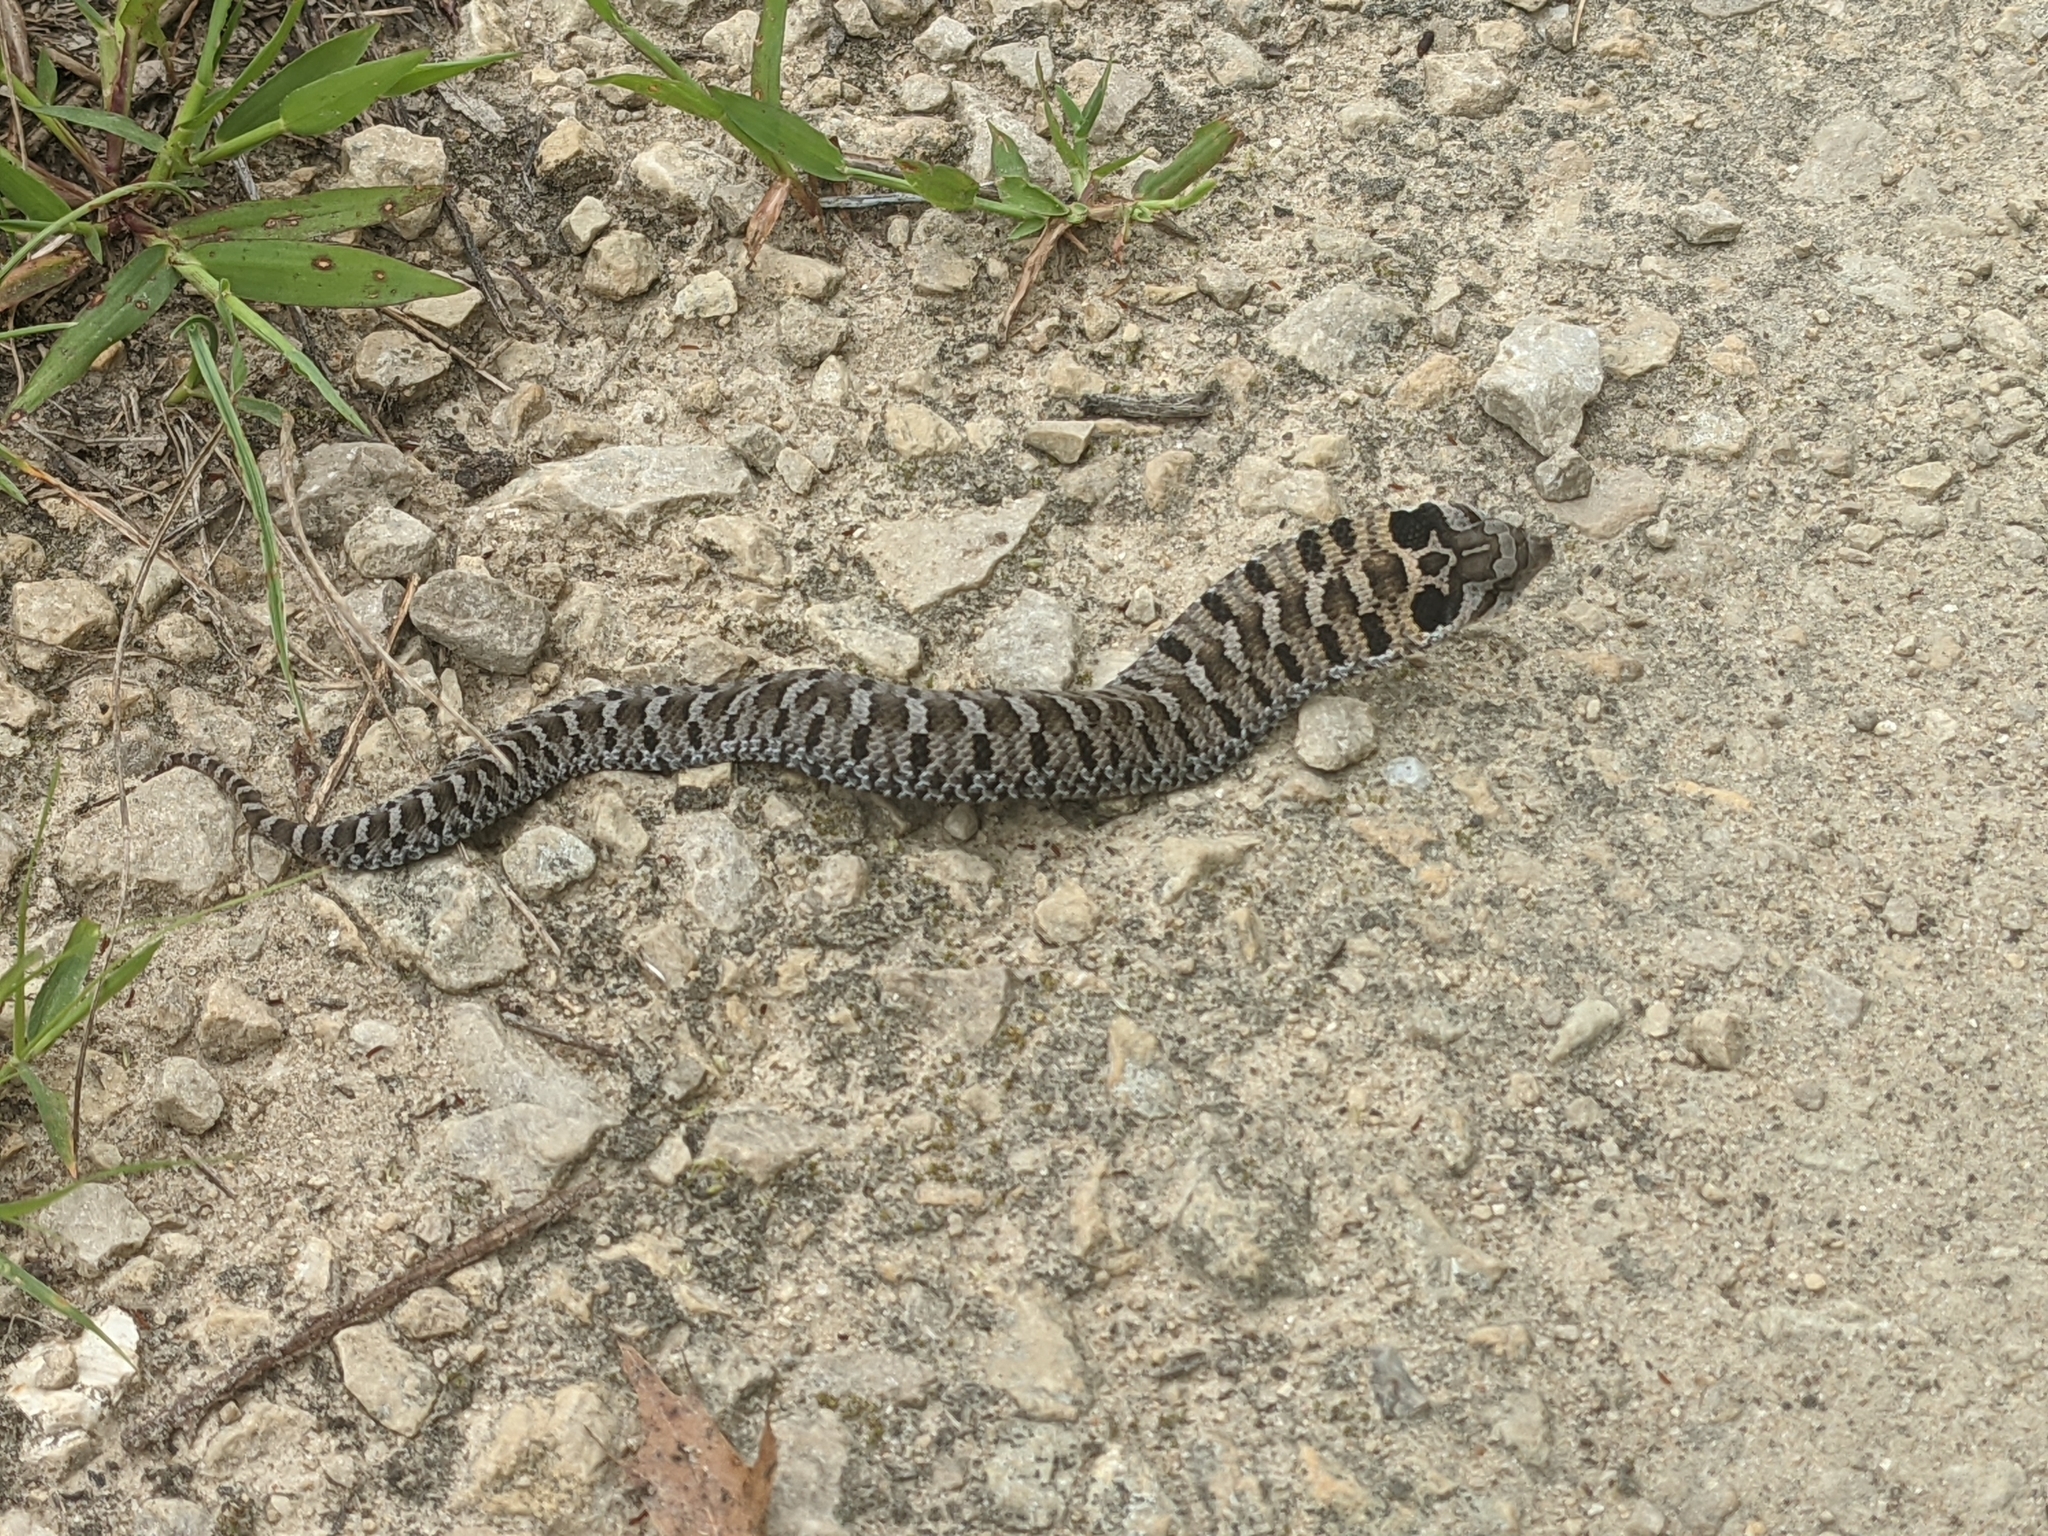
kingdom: Animalia
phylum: Chordata
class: Squamata
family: Colubridae
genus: Heterodon
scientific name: Heterodon platirhinos
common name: Eastern hognose snake
